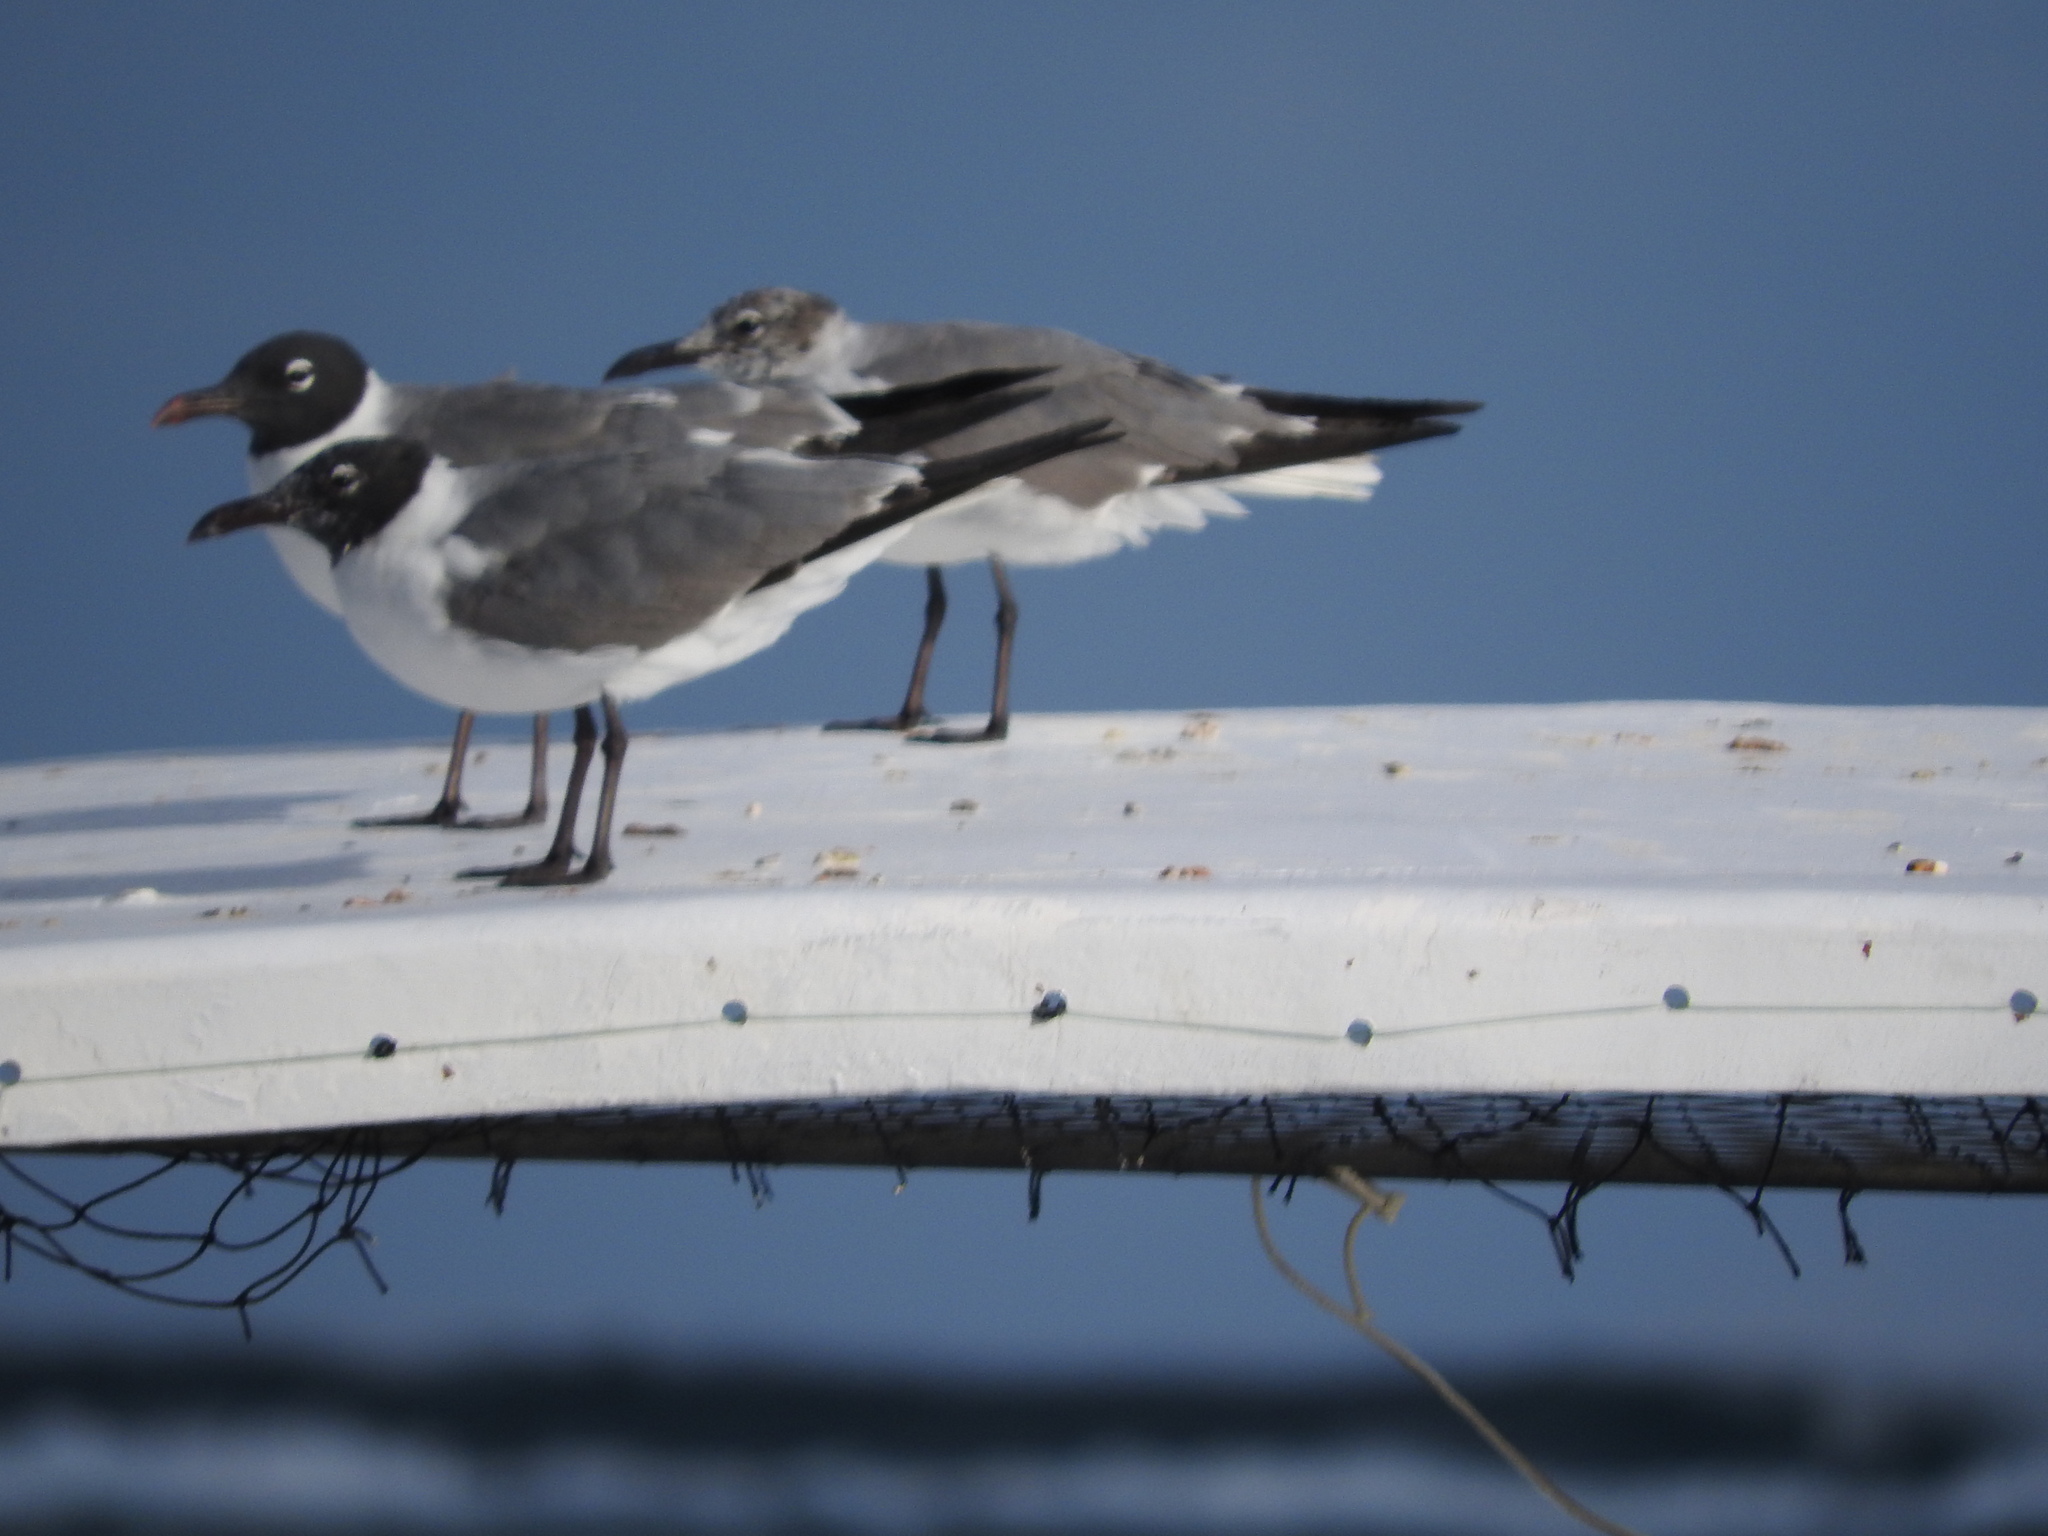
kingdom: Animalia
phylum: Chordata
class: Aves
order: Charadriiformes
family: Laridae
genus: Leucophaeus
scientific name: Leucophaeus atricilla
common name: Laughing gull
